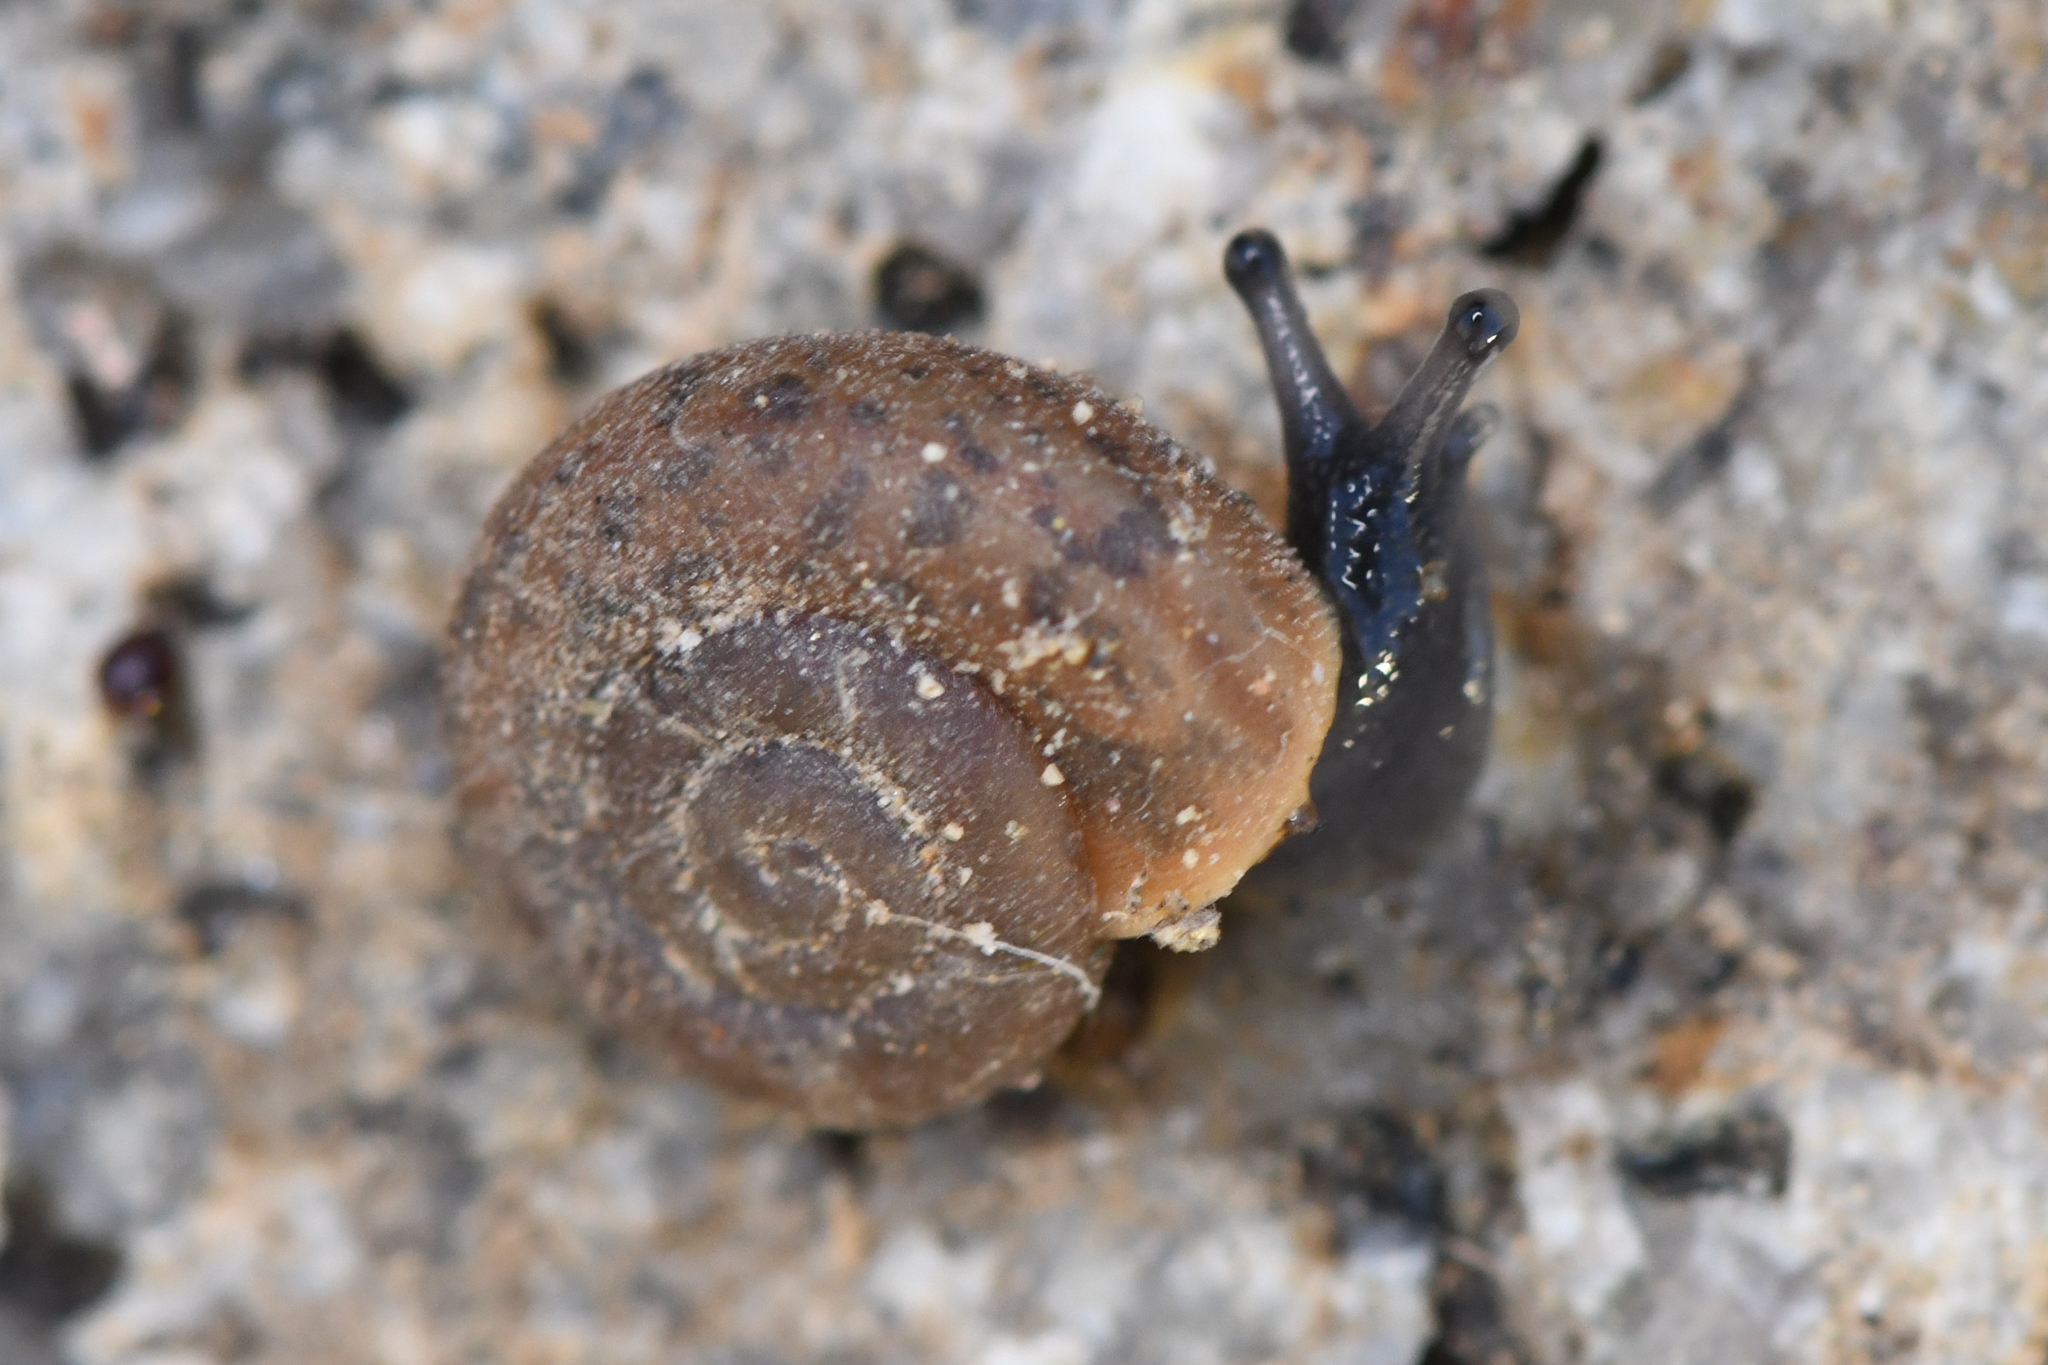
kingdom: Animalia
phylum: Mollusca
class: Gastropoda
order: Stylommatophora
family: Xanthonychidae
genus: Sonorelix
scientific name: Sonorelix micrometalleus
